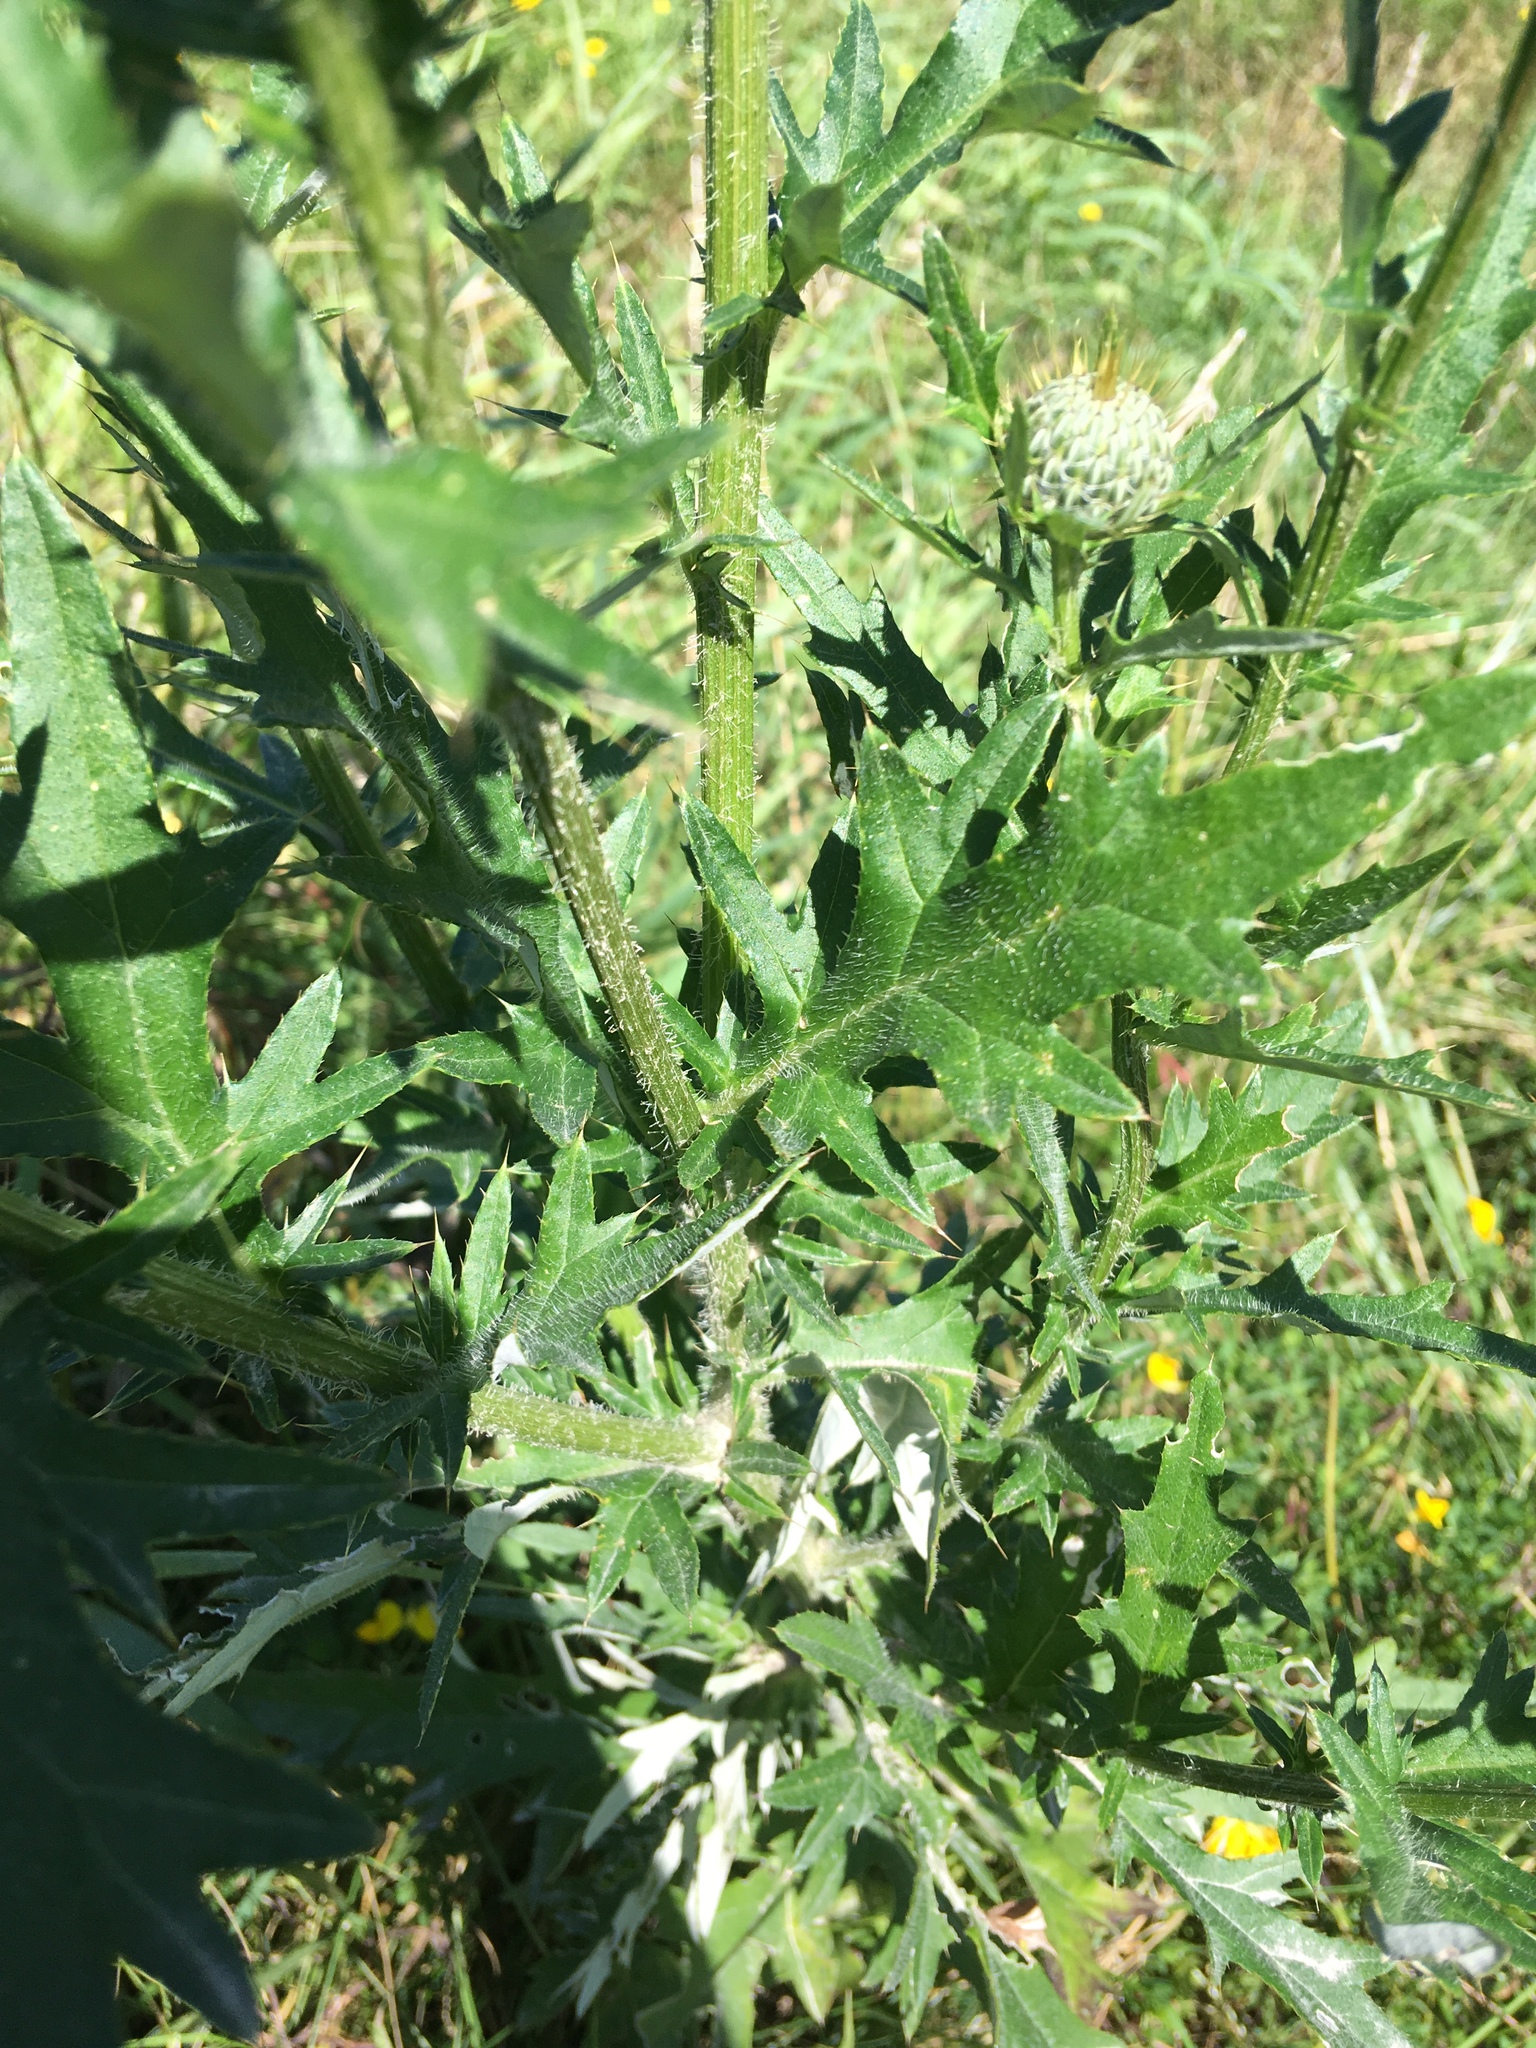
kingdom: Plantae
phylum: Tracheophyta
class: Magnoliopsida
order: Asterales
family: Asteraceae
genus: Cirsium
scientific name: Cirsium discolor
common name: Field thistle
